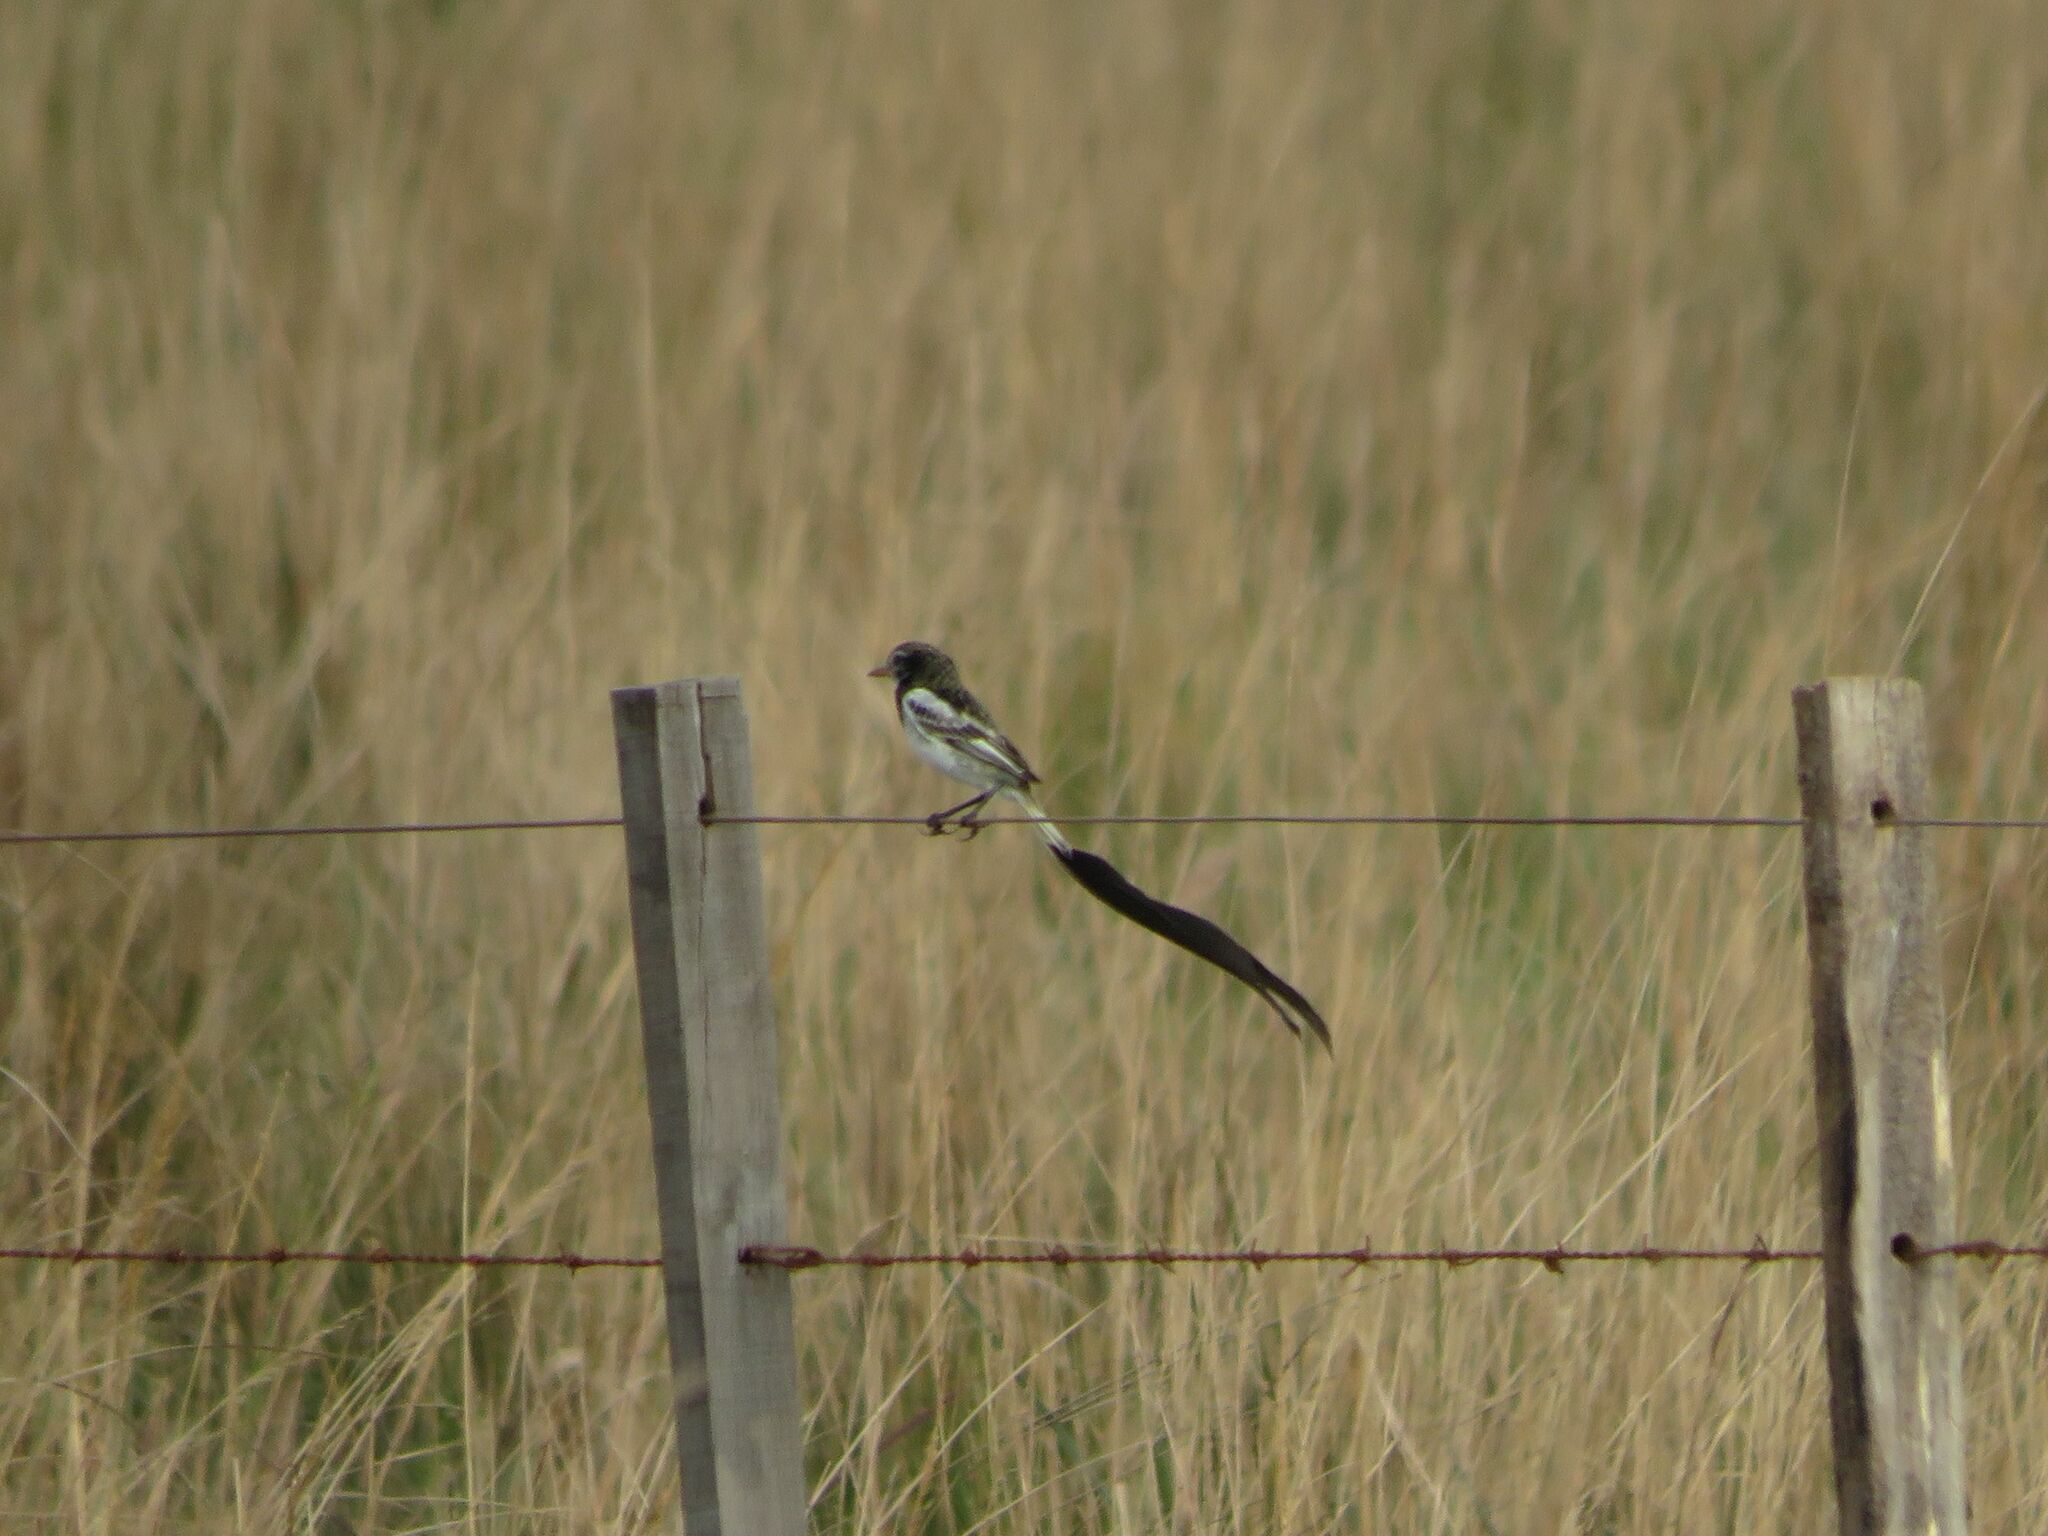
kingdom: Animalia
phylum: Chordata
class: Aves
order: Passeriformes
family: Tyrannidae
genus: Alectrurus
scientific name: Alectrurus risora
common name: Strange-tailed tyrant
